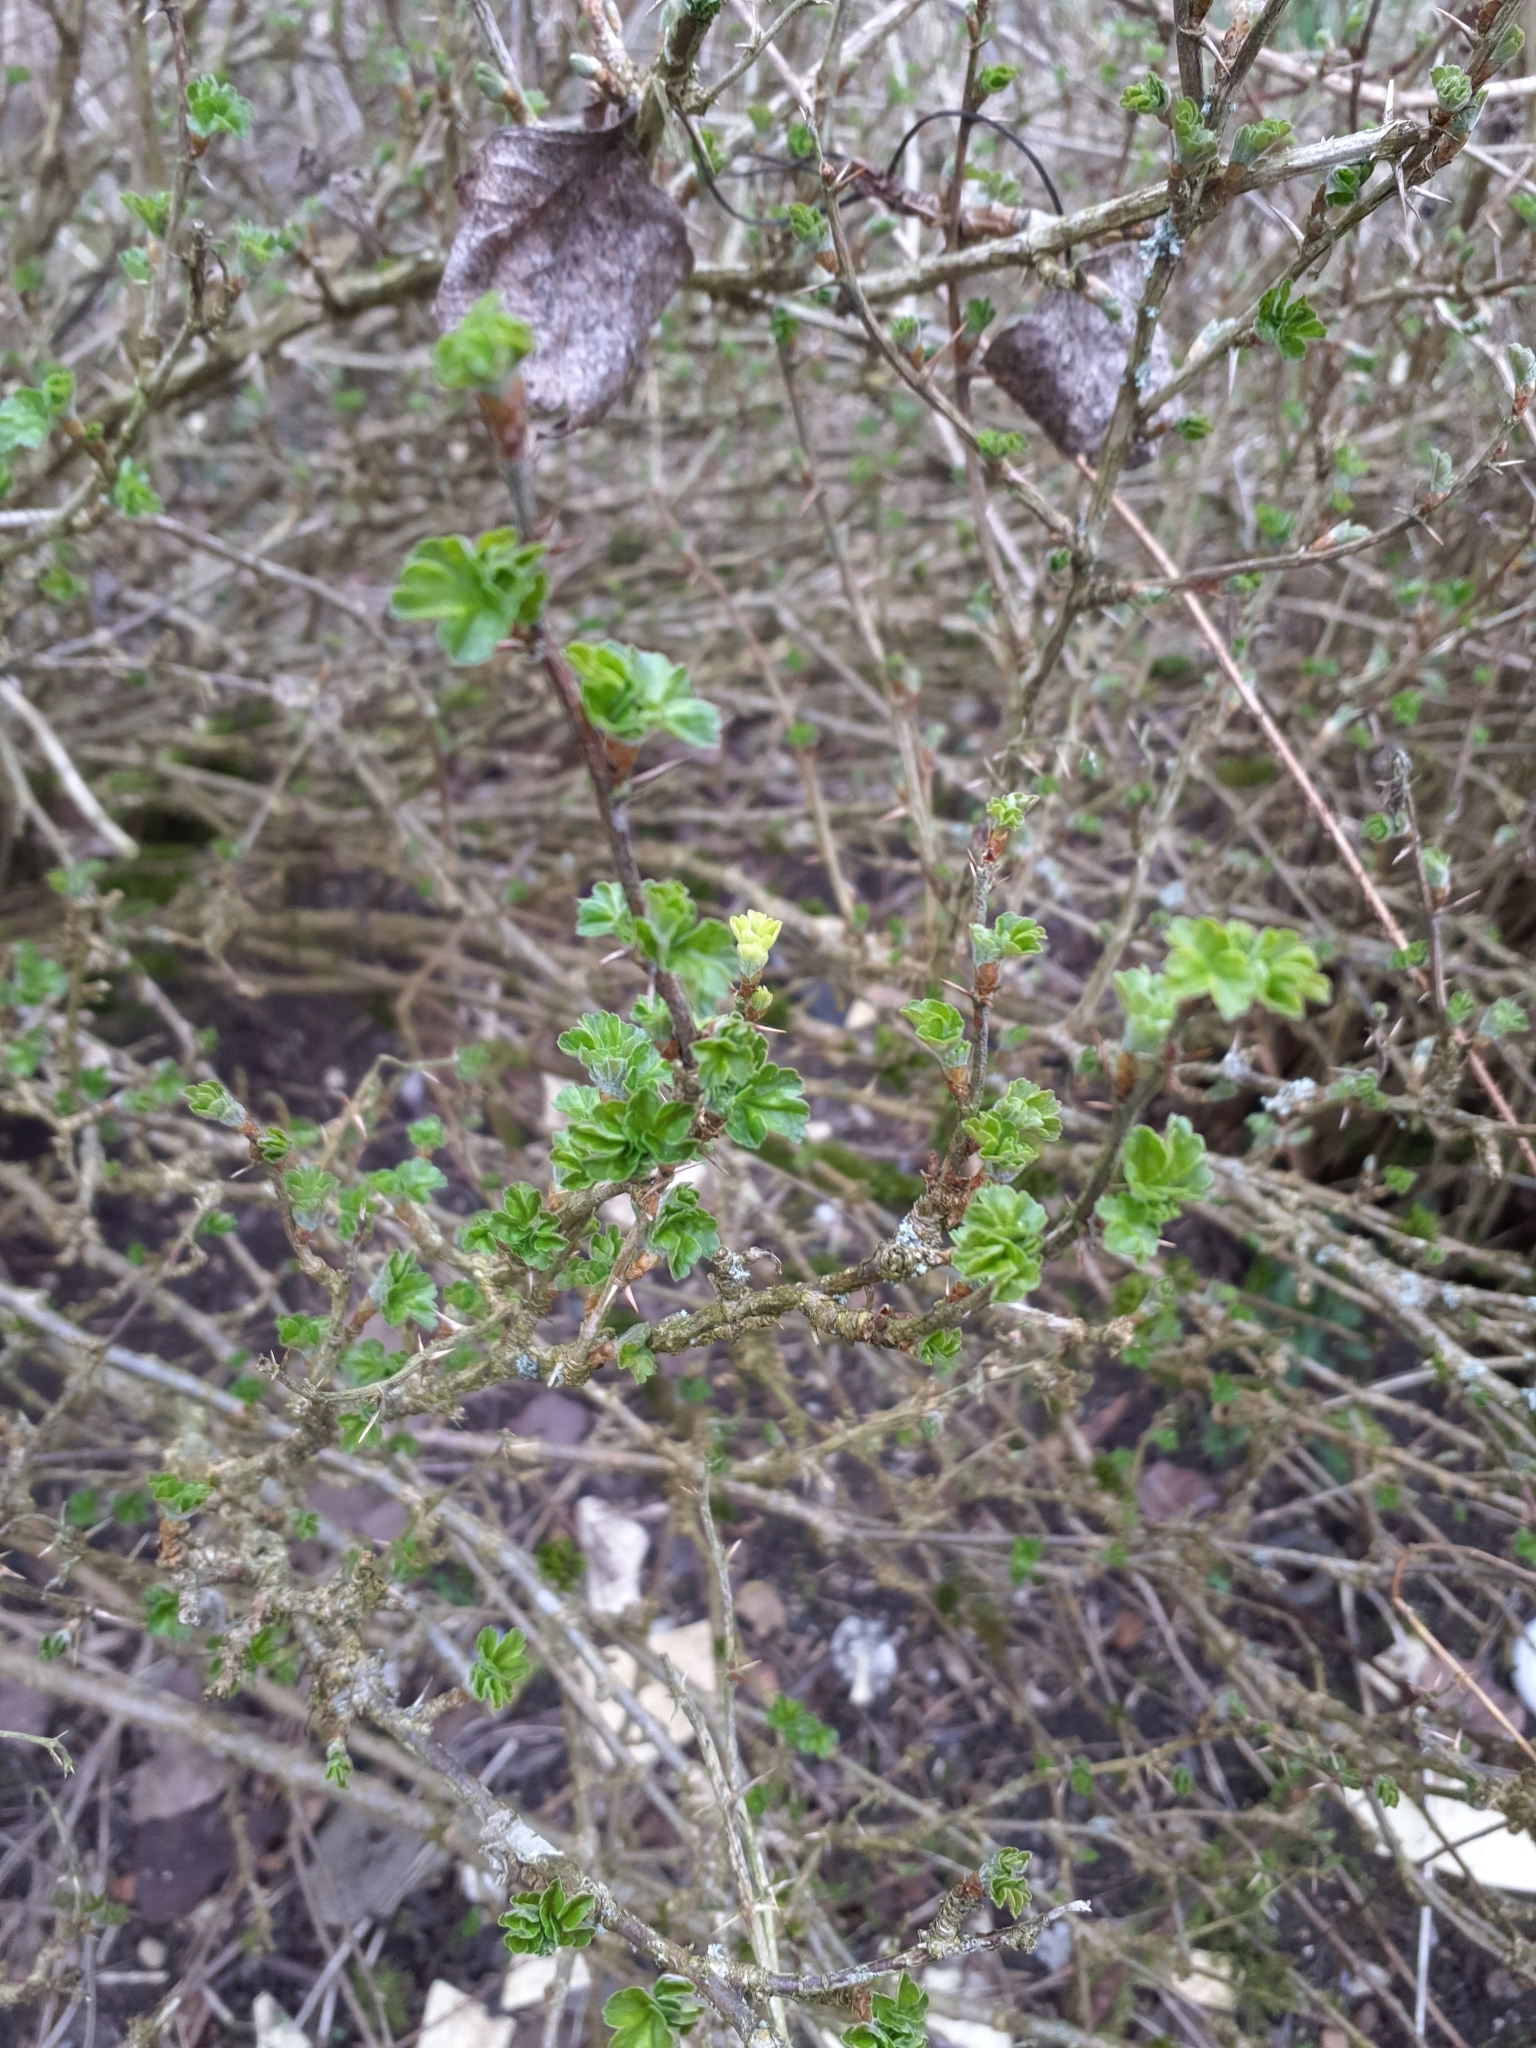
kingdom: Plantae
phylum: Tracheophyta
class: Magnoliopsida
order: Saxifragales
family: Grossulariaceae
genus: Ribes
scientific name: Ribes uva-crispa
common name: Gooseberry
